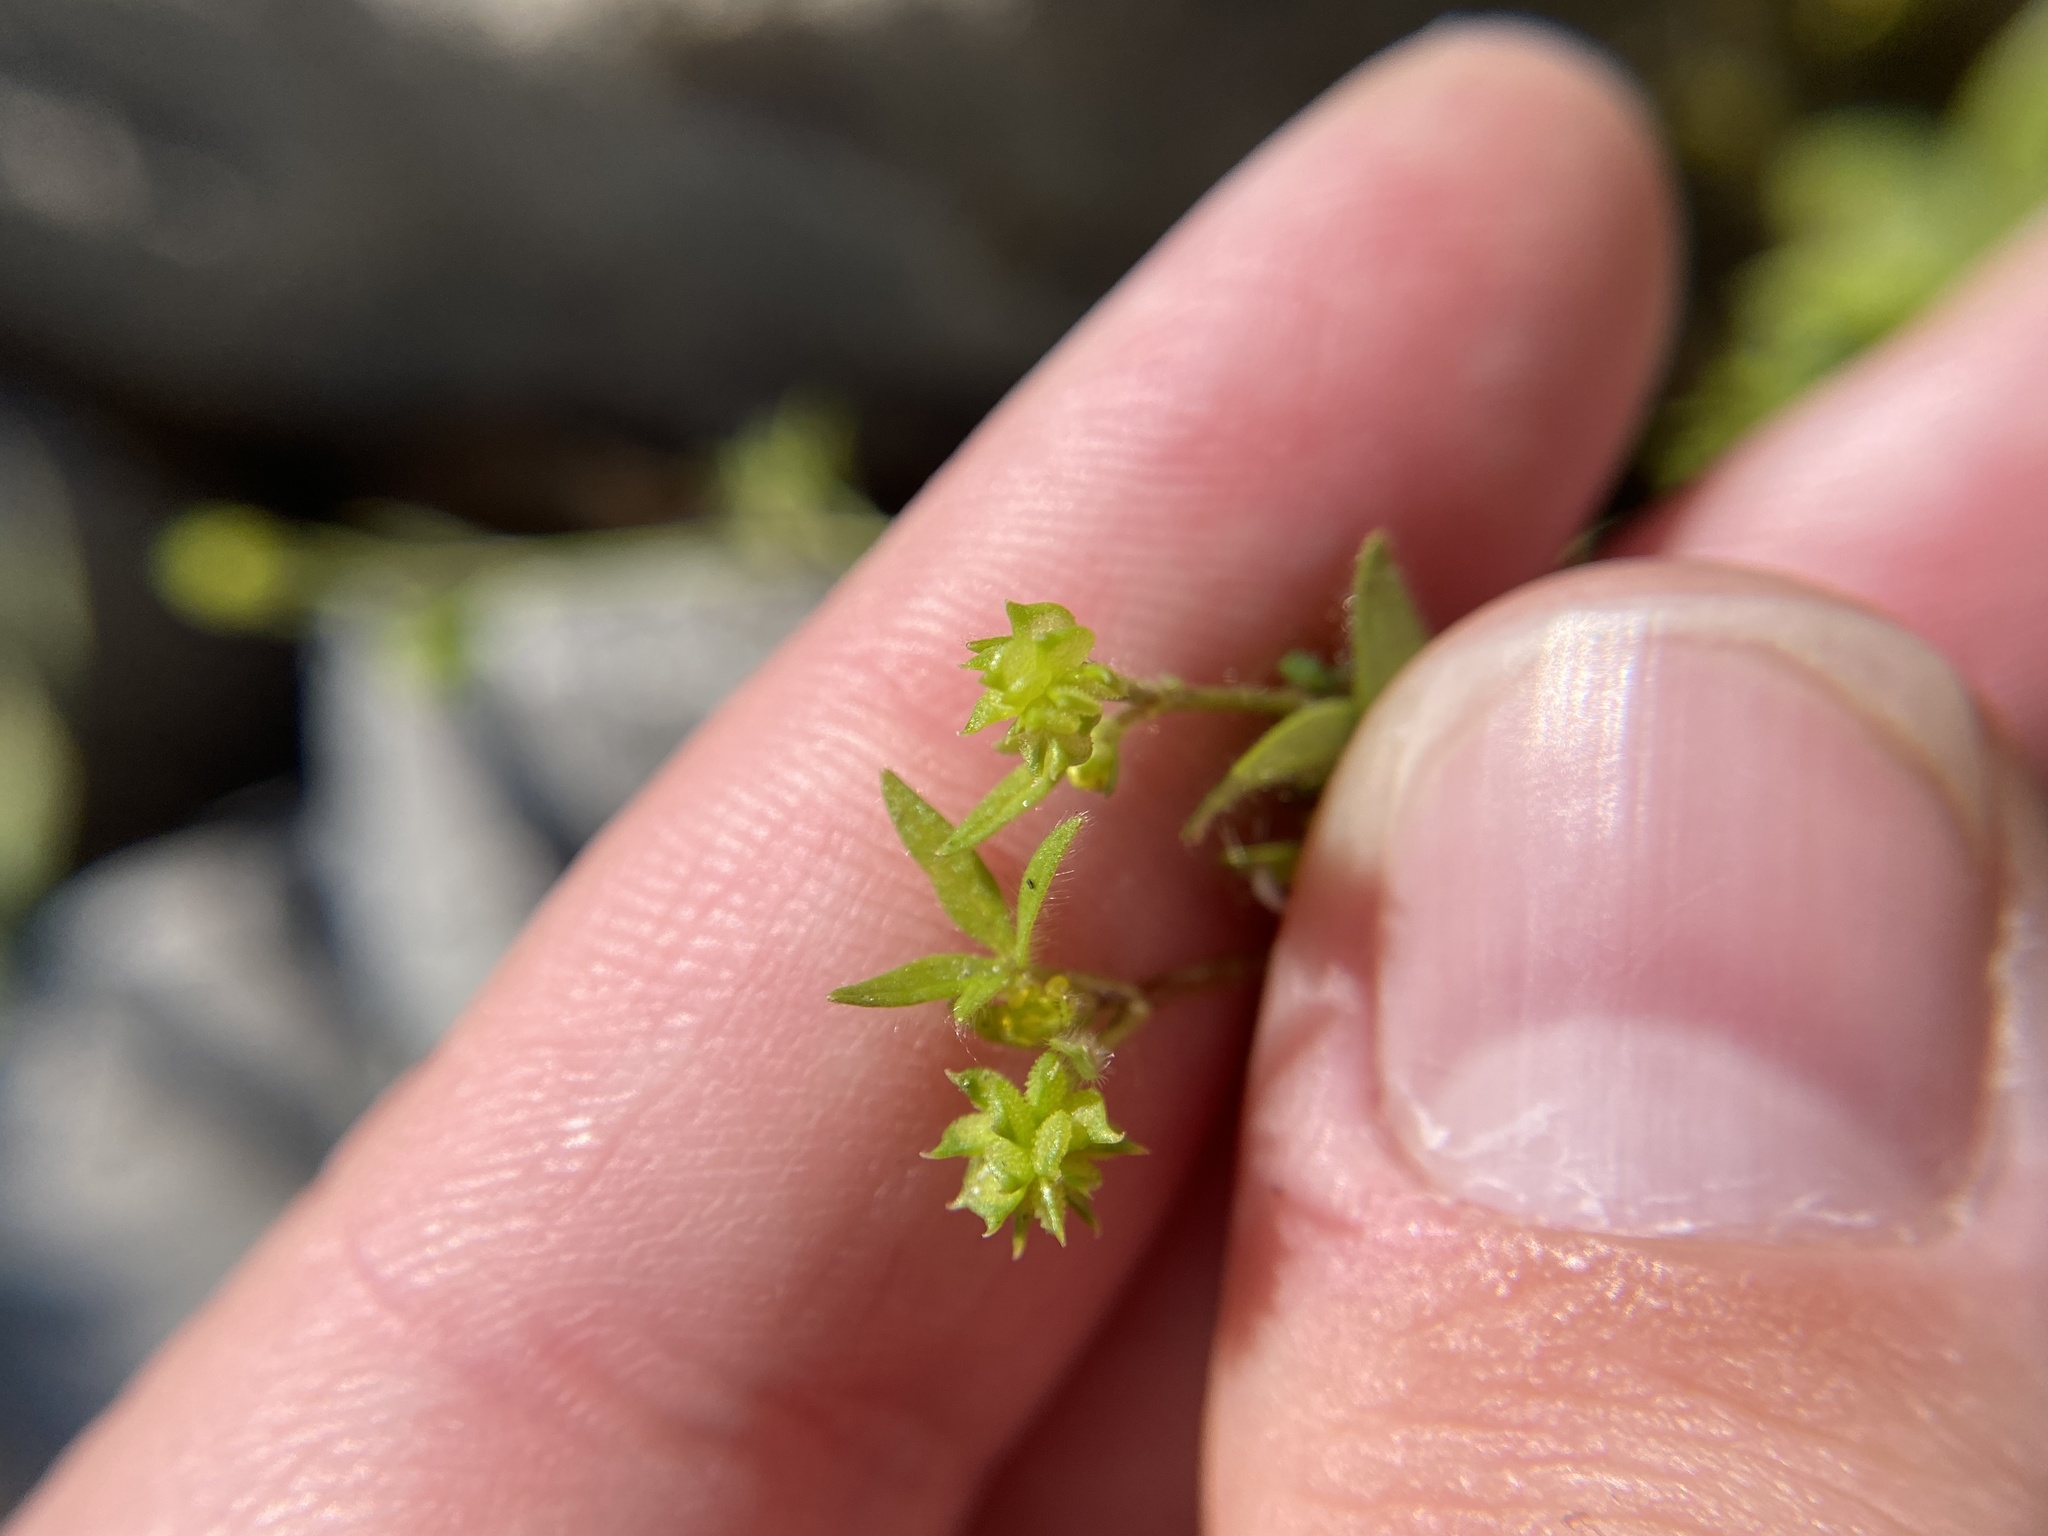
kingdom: Plantae
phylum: Tracheophyta
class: Magnoliopsida
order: Ranunculales
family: Ranunculaceae
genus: Ranunculus
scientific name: Ranunculus parviflorus
